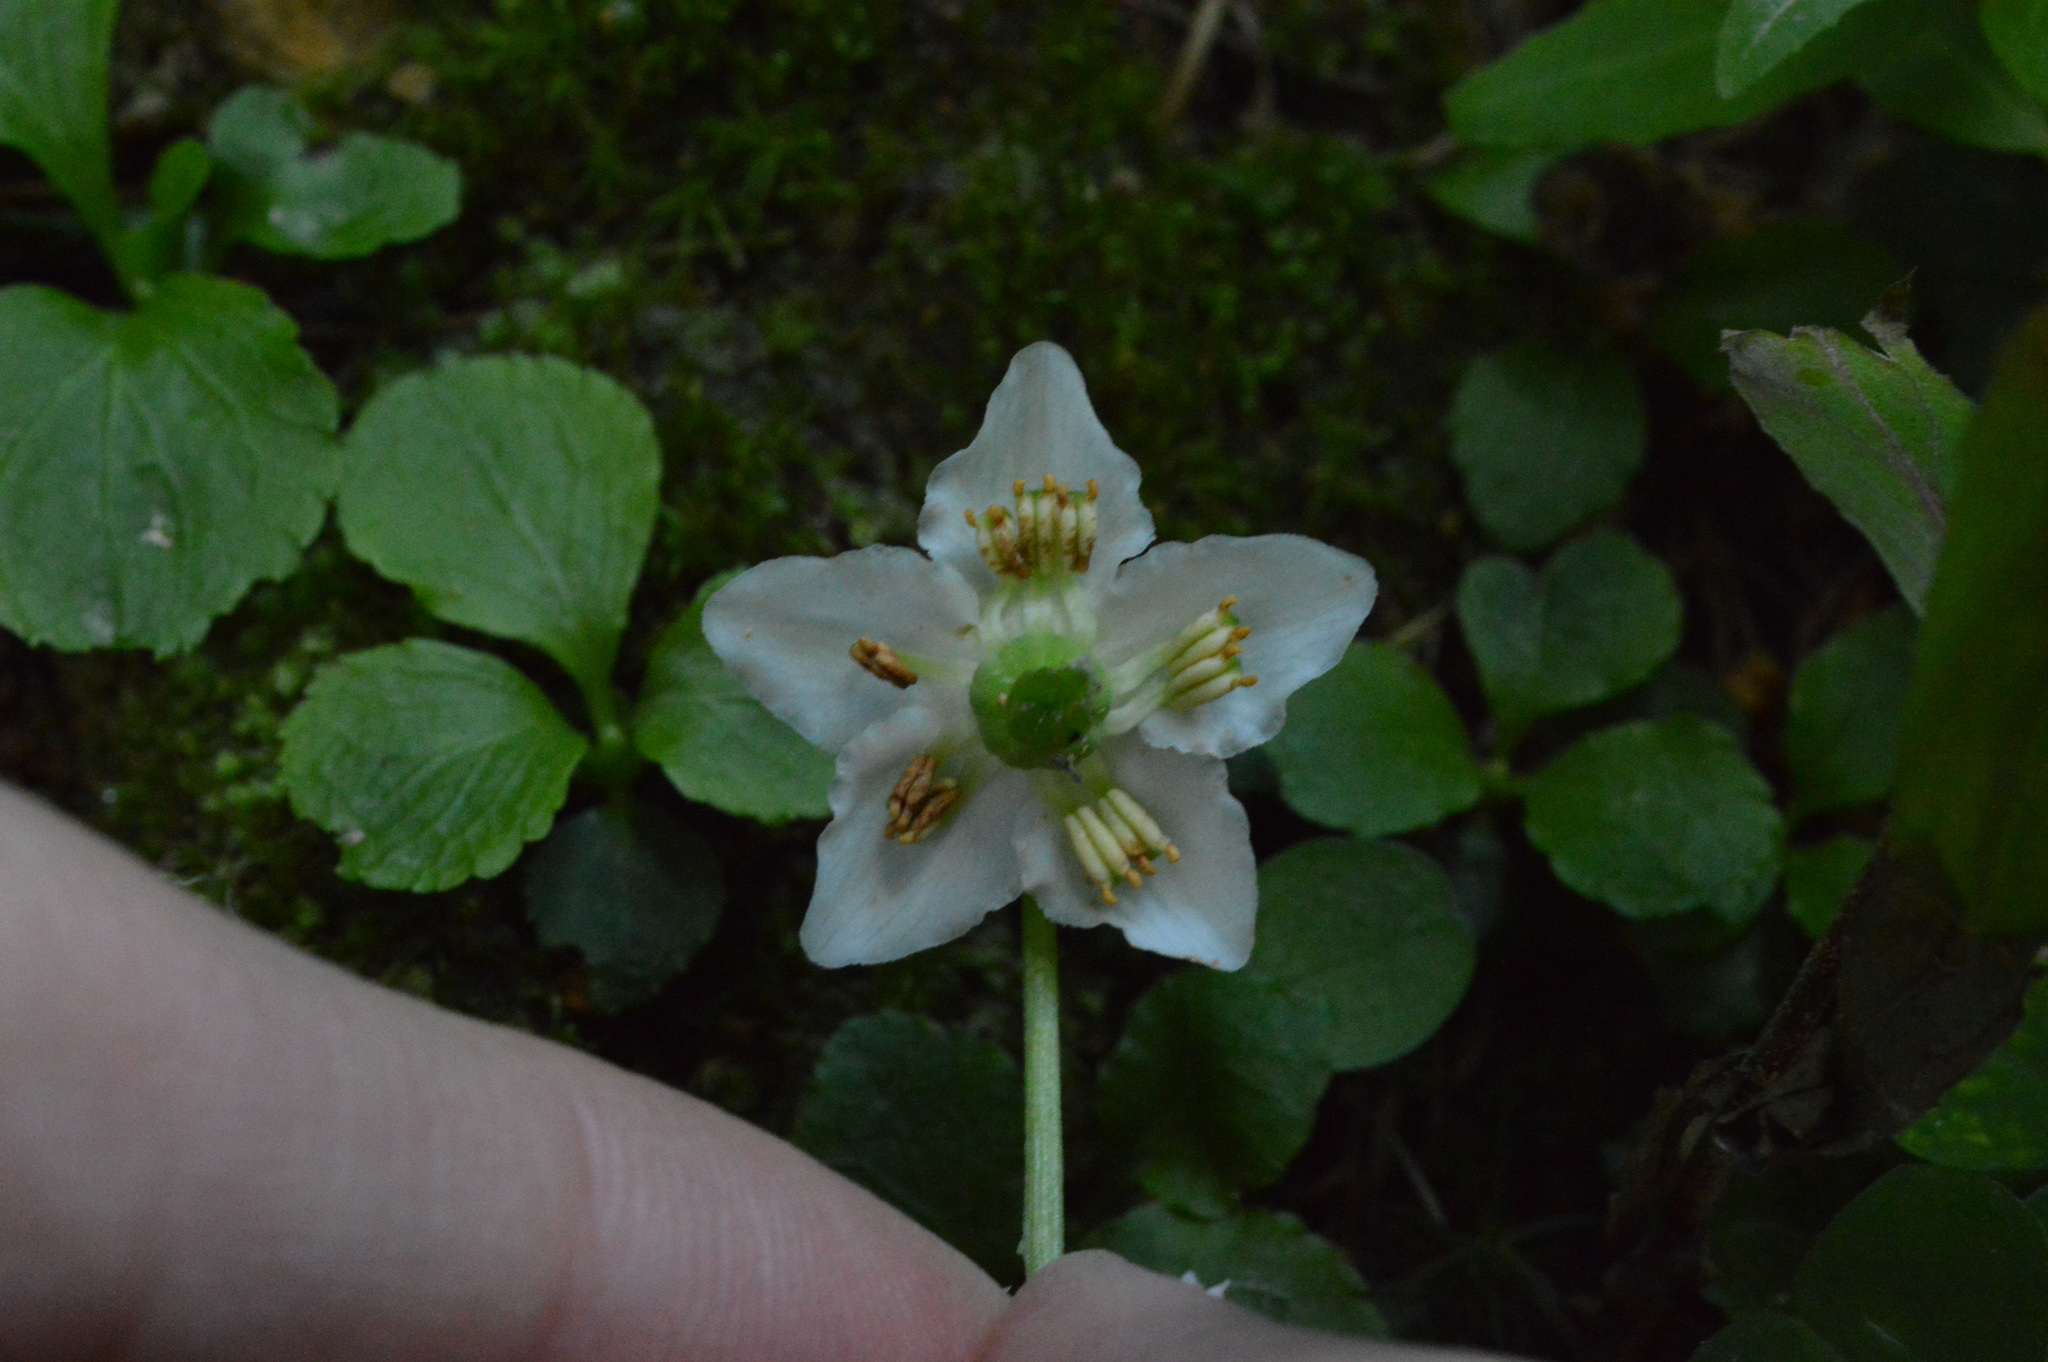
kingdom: Plantae
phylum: Tracheophyta
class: Magnoliopsida
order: Ericales
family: Ericaceae
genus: Moneses
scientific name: Moneses uniflora
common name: One-flowered wintergreen
